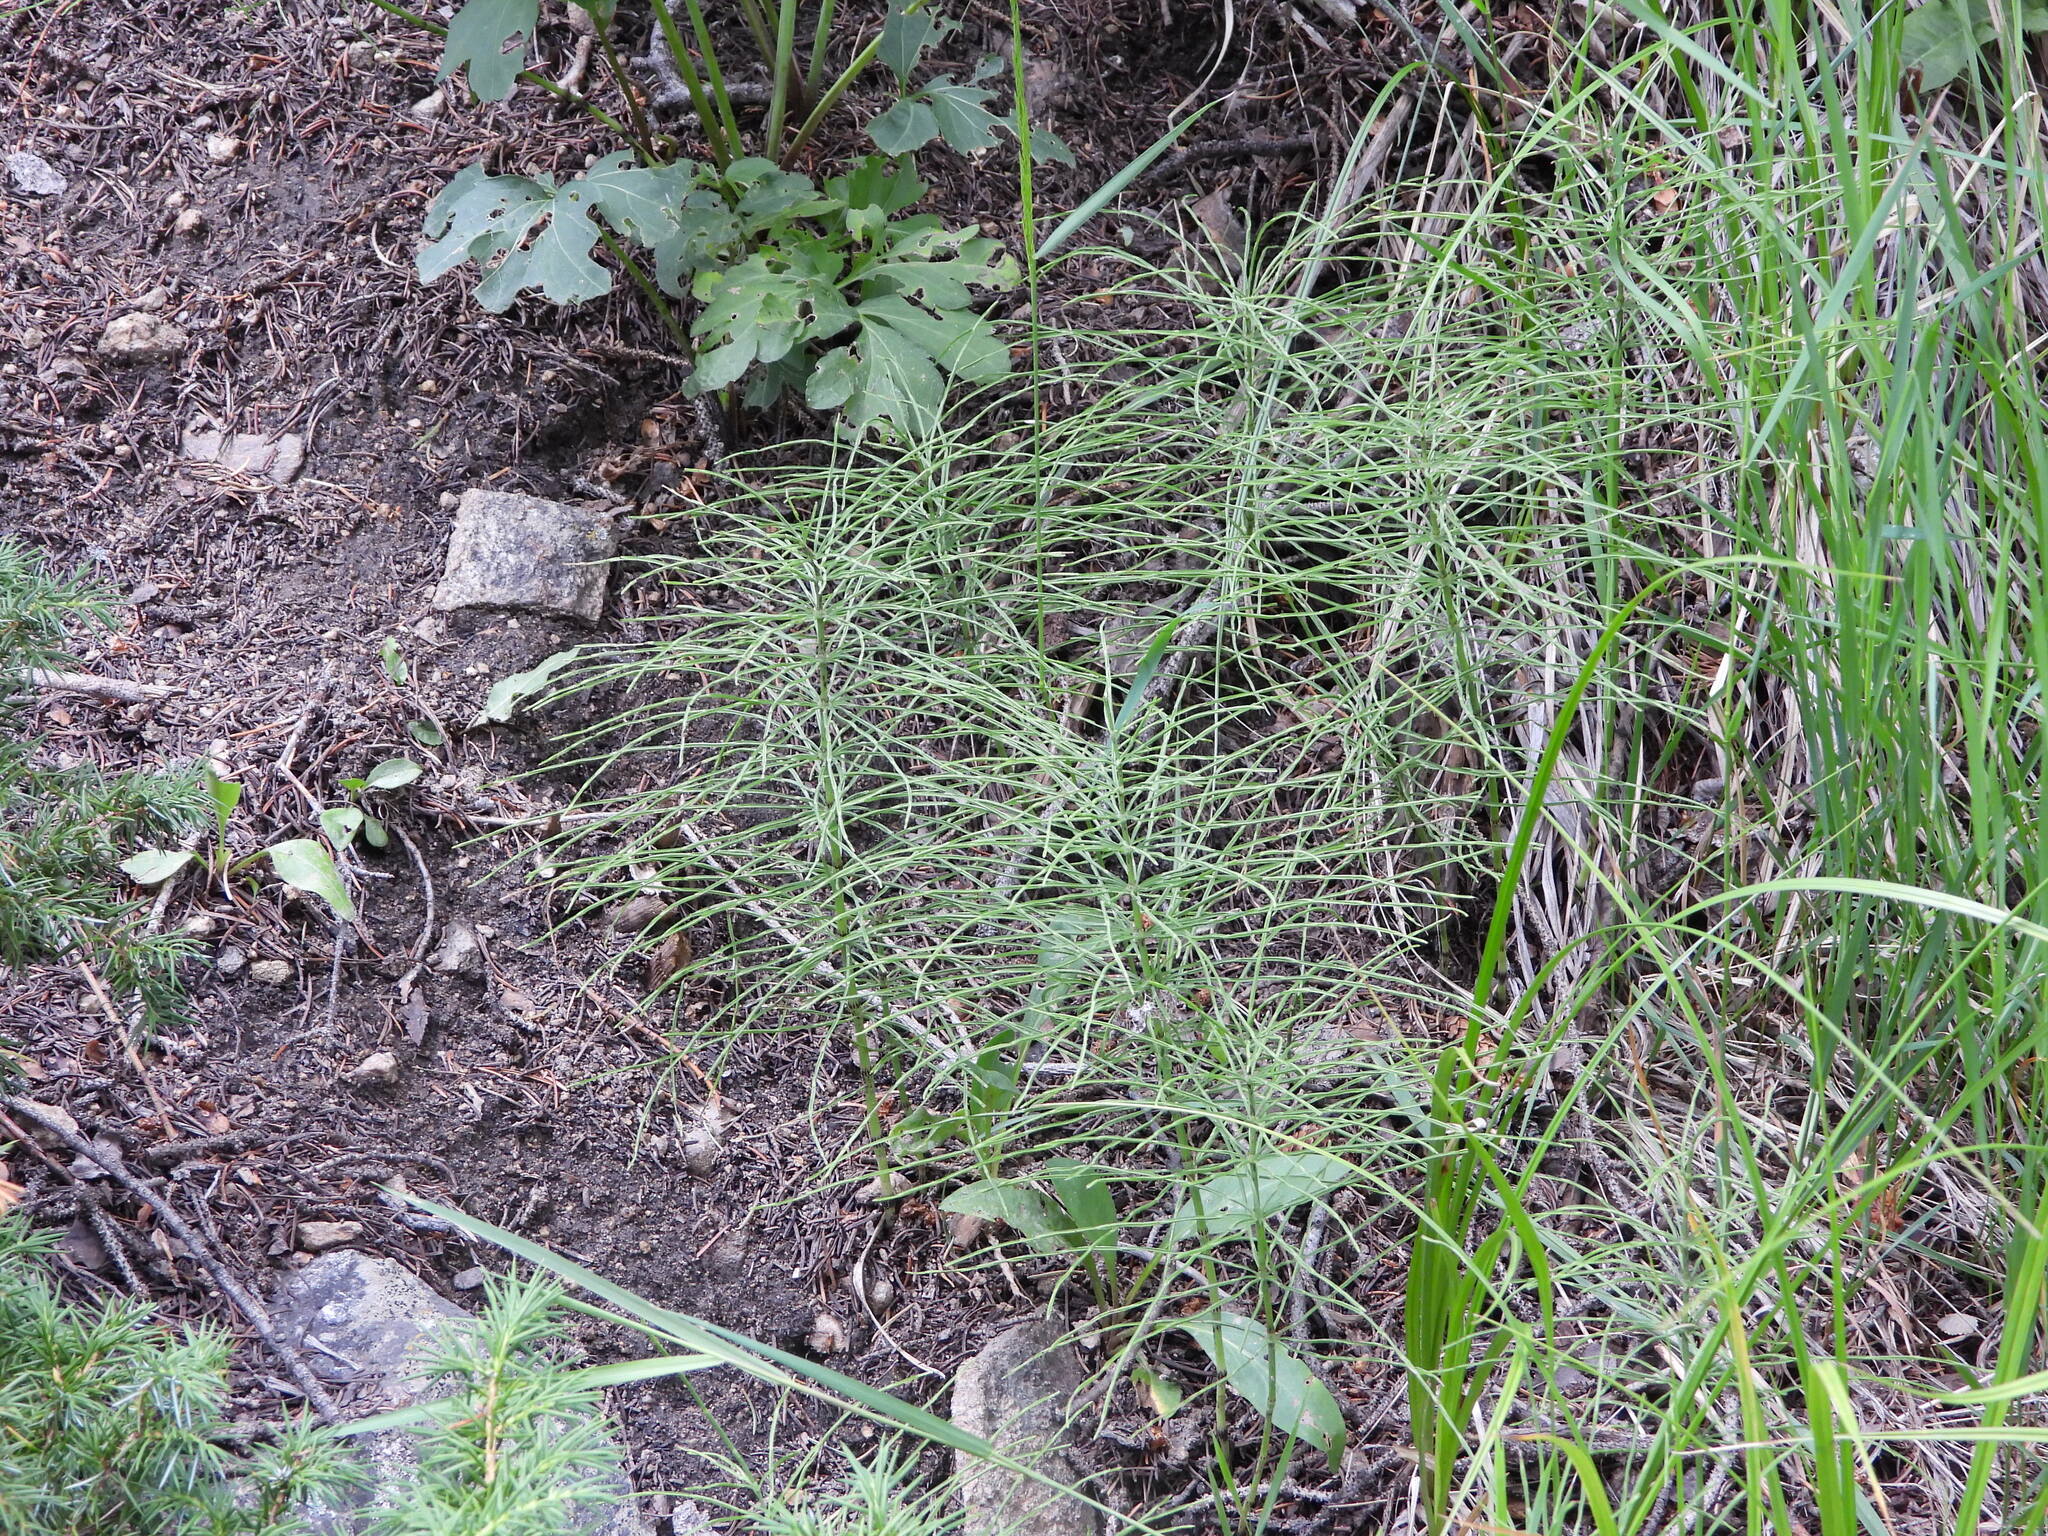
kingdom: Plantae
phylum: Tracheophyta
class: Polypodiopsida
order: Equisetales
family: Equisetaceae
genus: Equisetum
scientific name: Equisetum arvense
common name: Field horsetail
